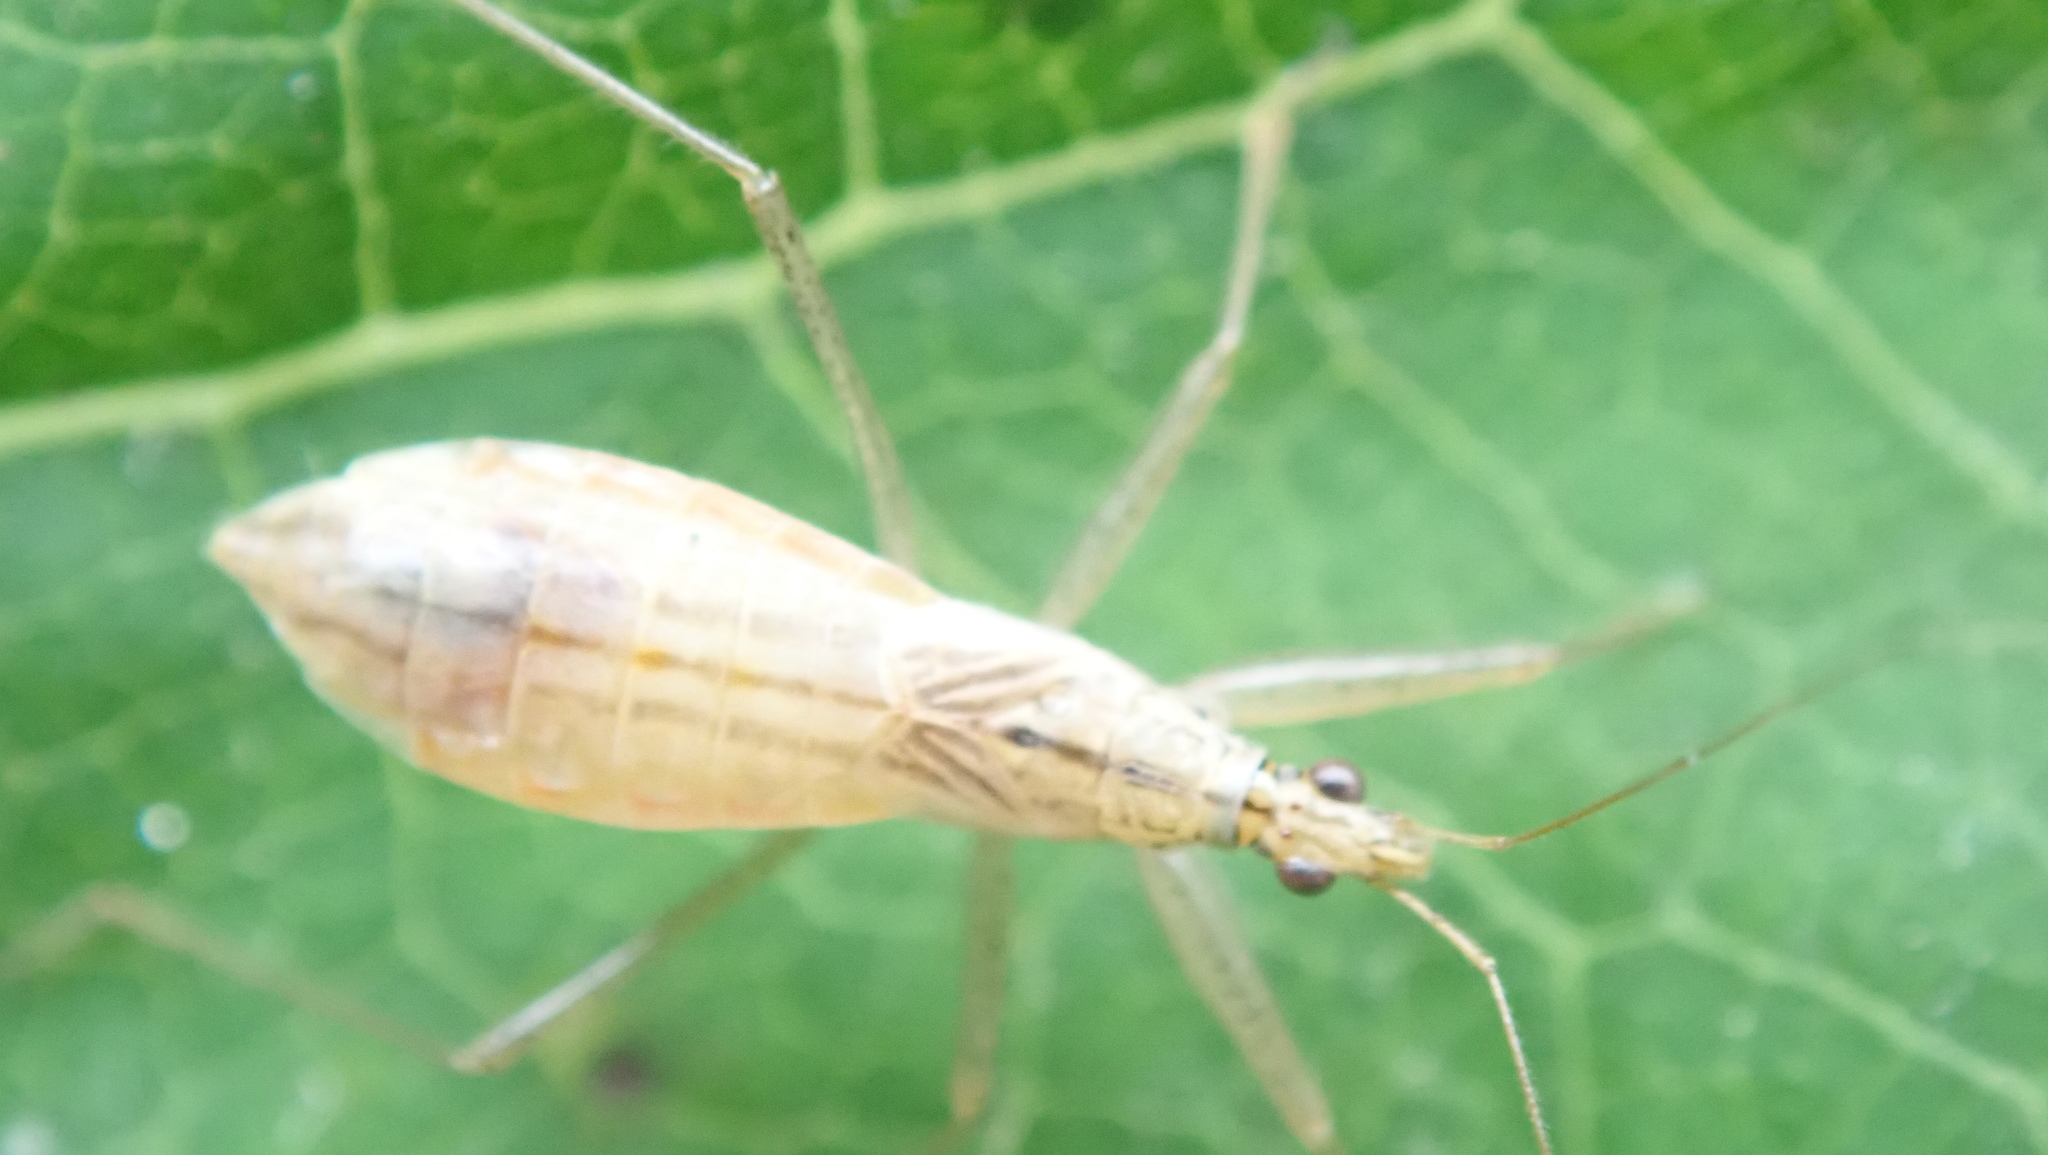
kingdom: Animalia
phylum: Arthropoda
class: Insecta
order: Hemiptera
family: Nabidae
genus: Nabis
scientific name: Nabis limbatus
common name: Marsh damselbug
